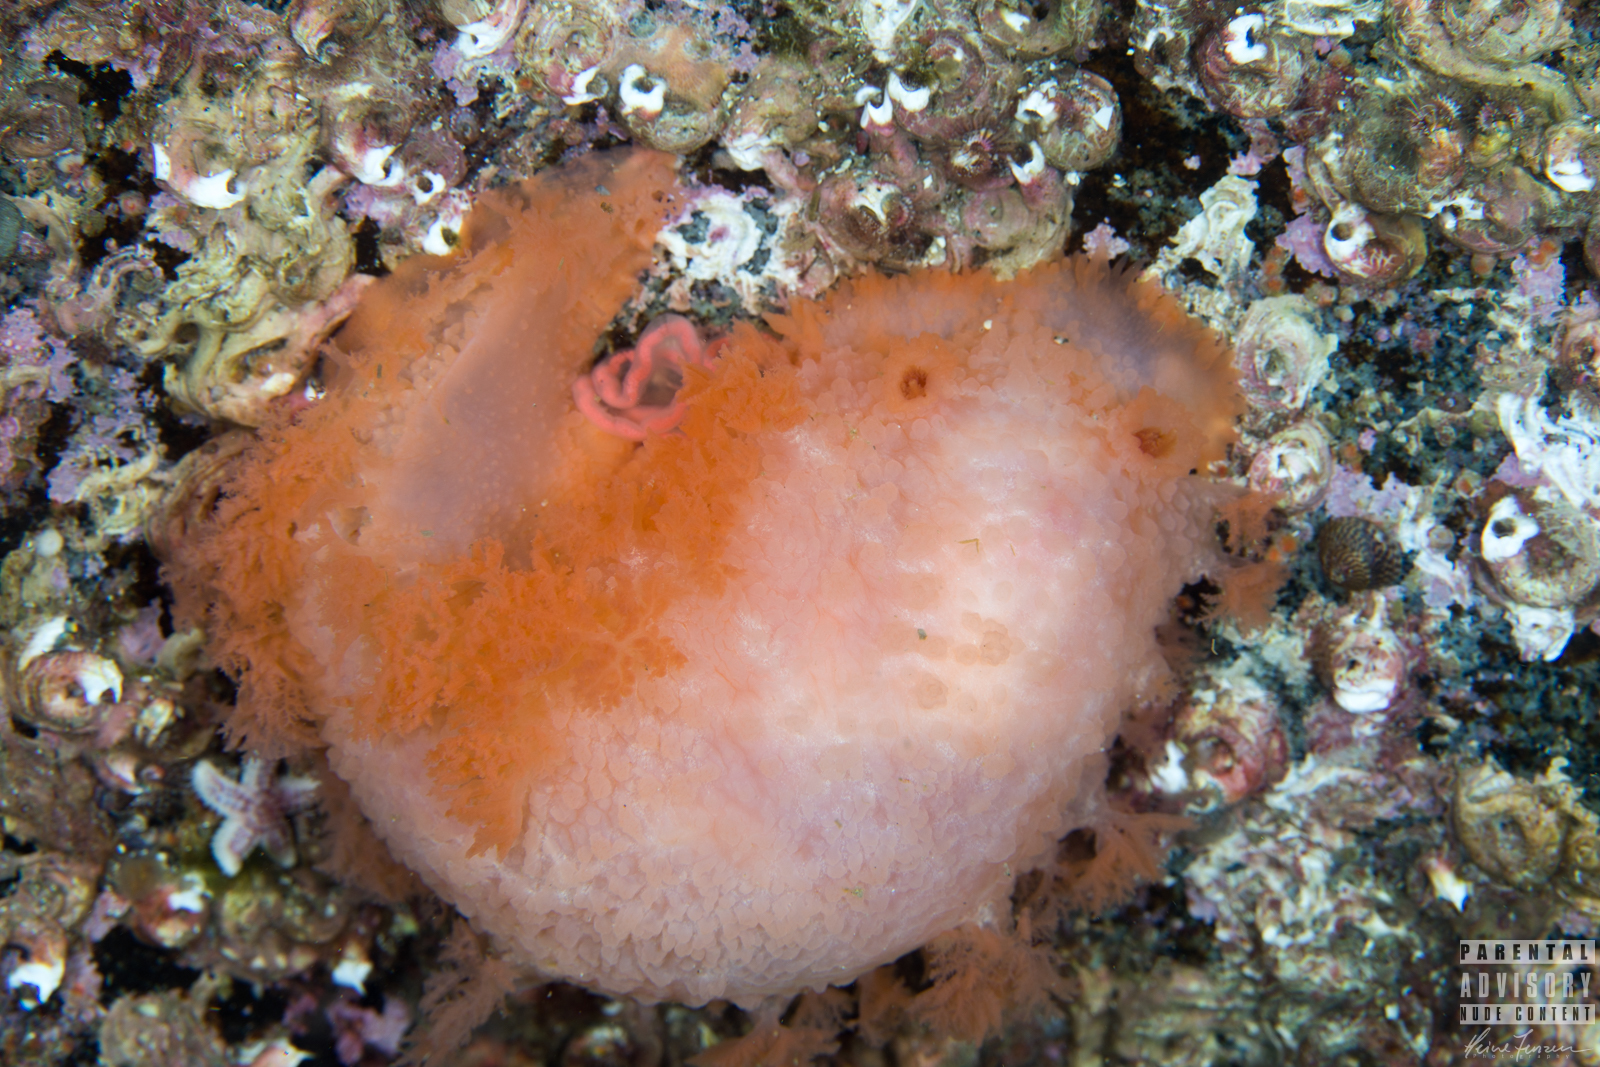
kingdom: Animalia
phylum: Mollusca
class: Gastropoda
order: Nudibranchia
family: Tritoniidae
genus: Tritonia
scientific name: Tritonia hombergii
